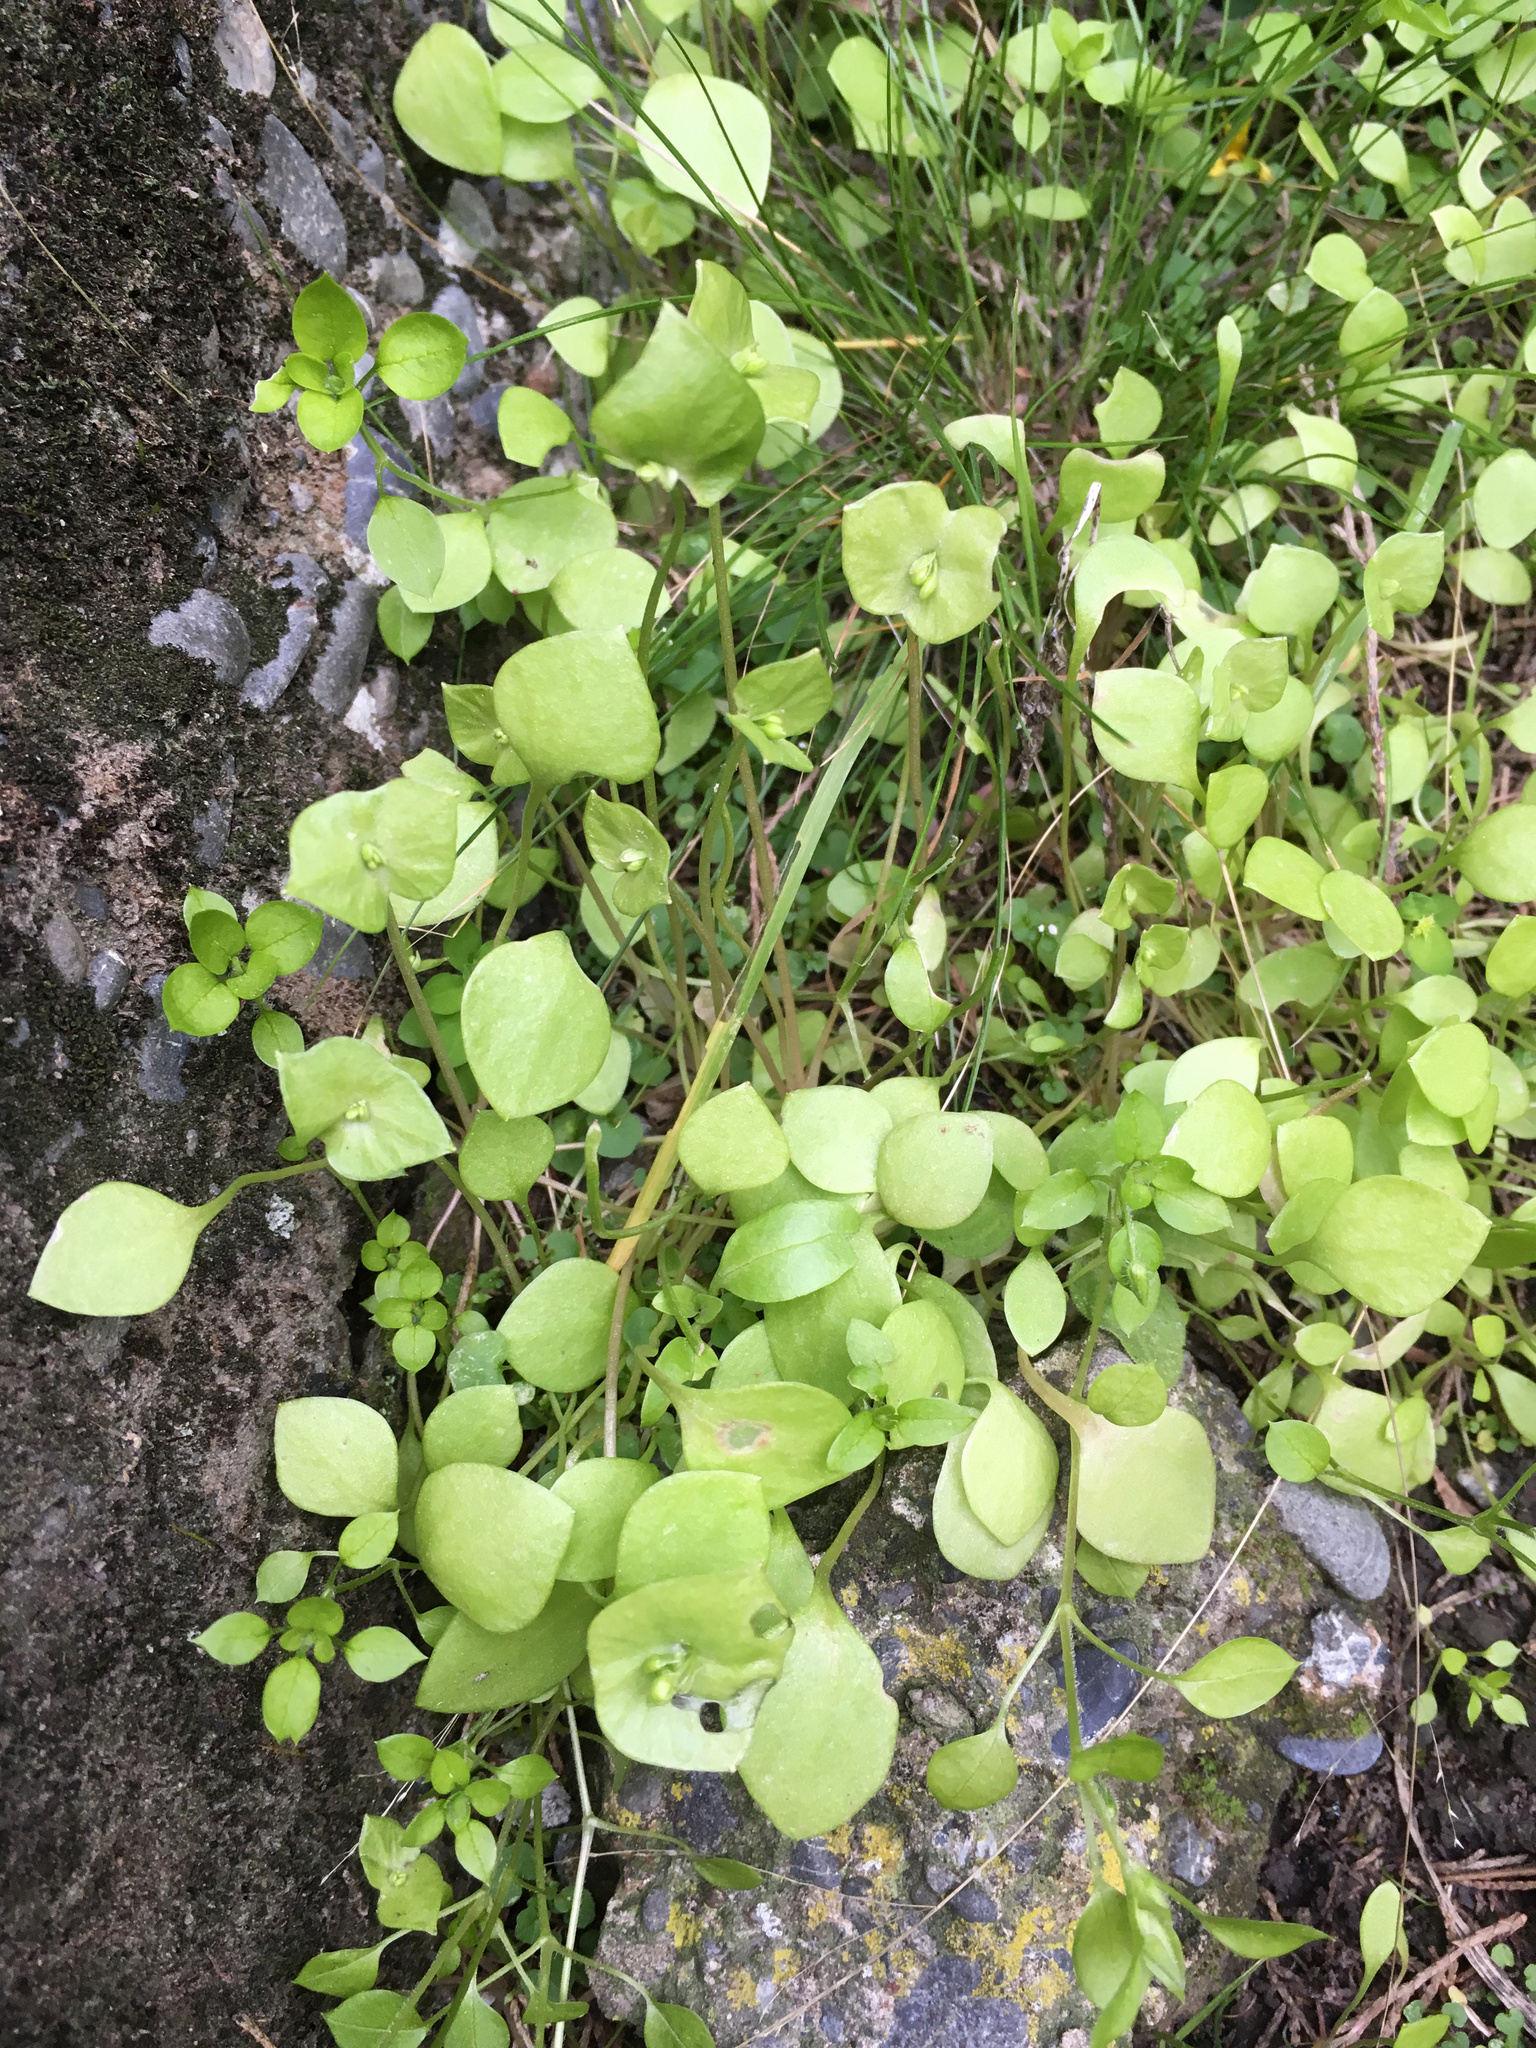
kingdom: Plantae
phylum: Tracheophyta
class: Magnoliopsida
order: Caryophyllales
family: Montiaceae
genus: Claytonia
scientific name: Claytonia perfoliata
